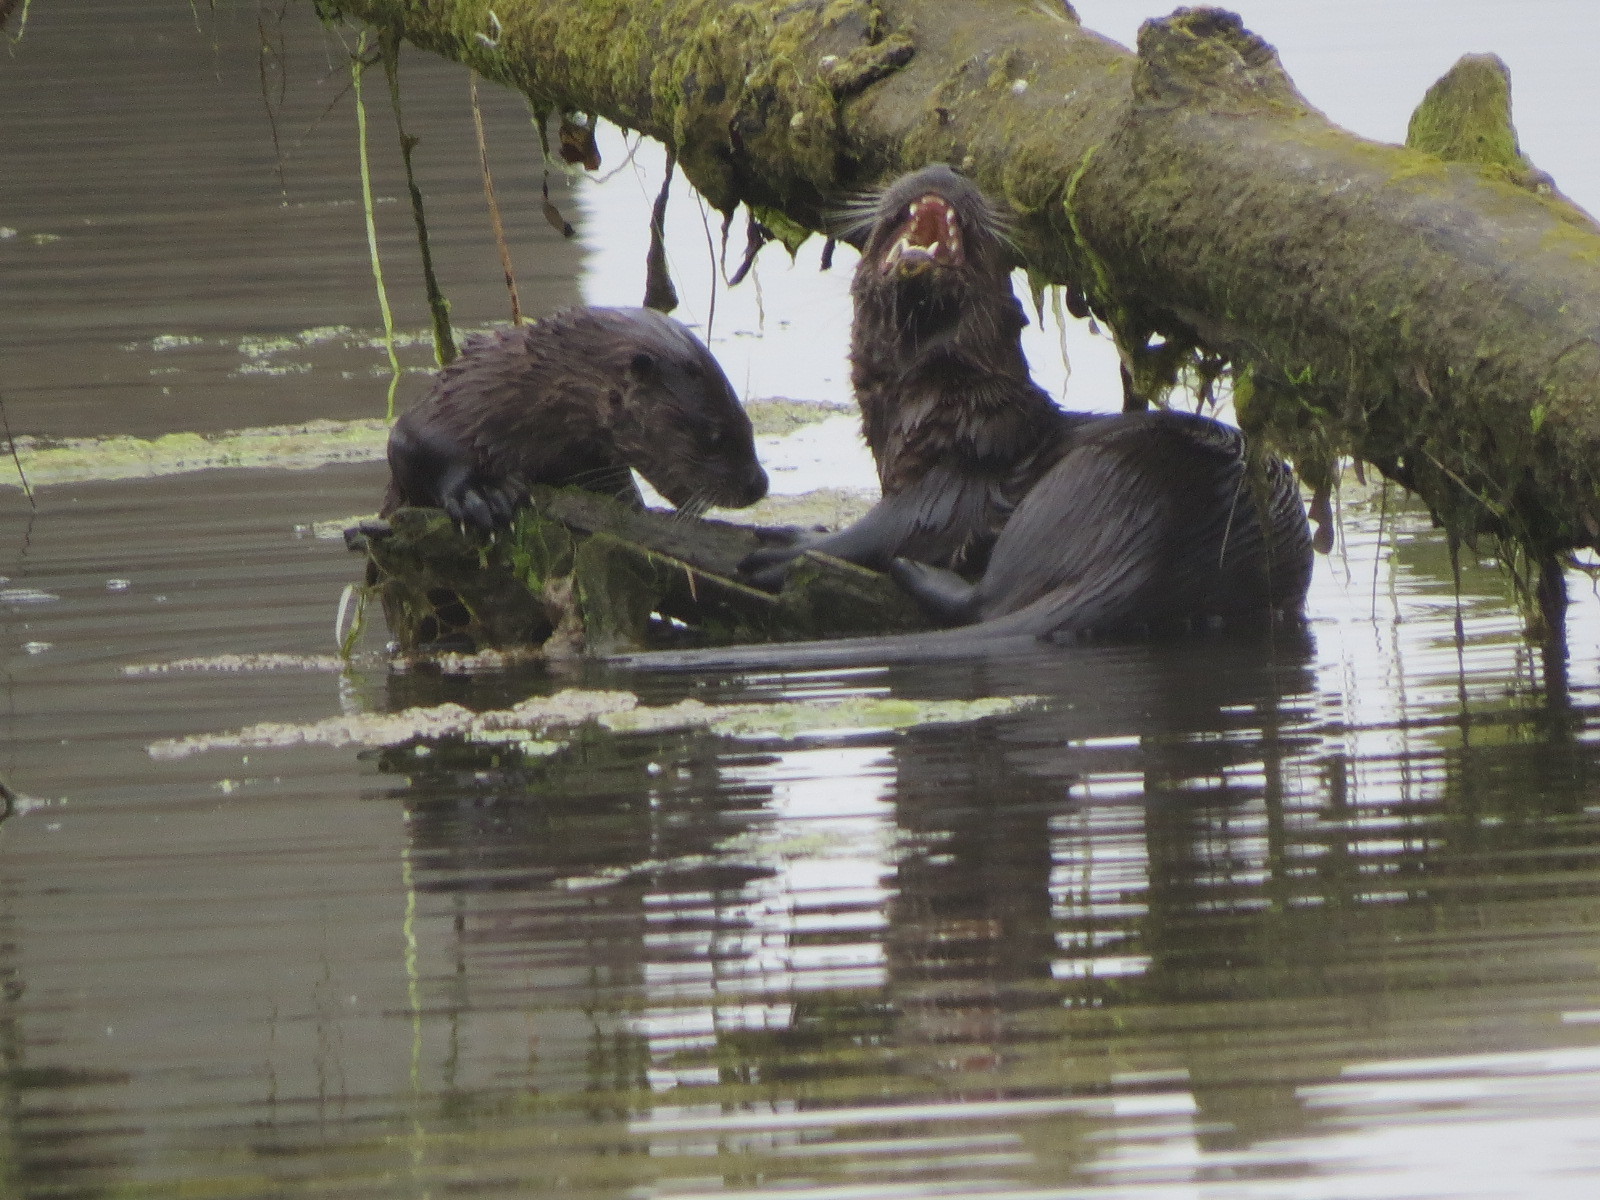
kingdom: Animalia
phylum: Chordata
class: Mammalia
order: Carnivora
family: Mustelidae
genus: Lontra
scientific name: Lontra canadensis
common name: North american river otter
